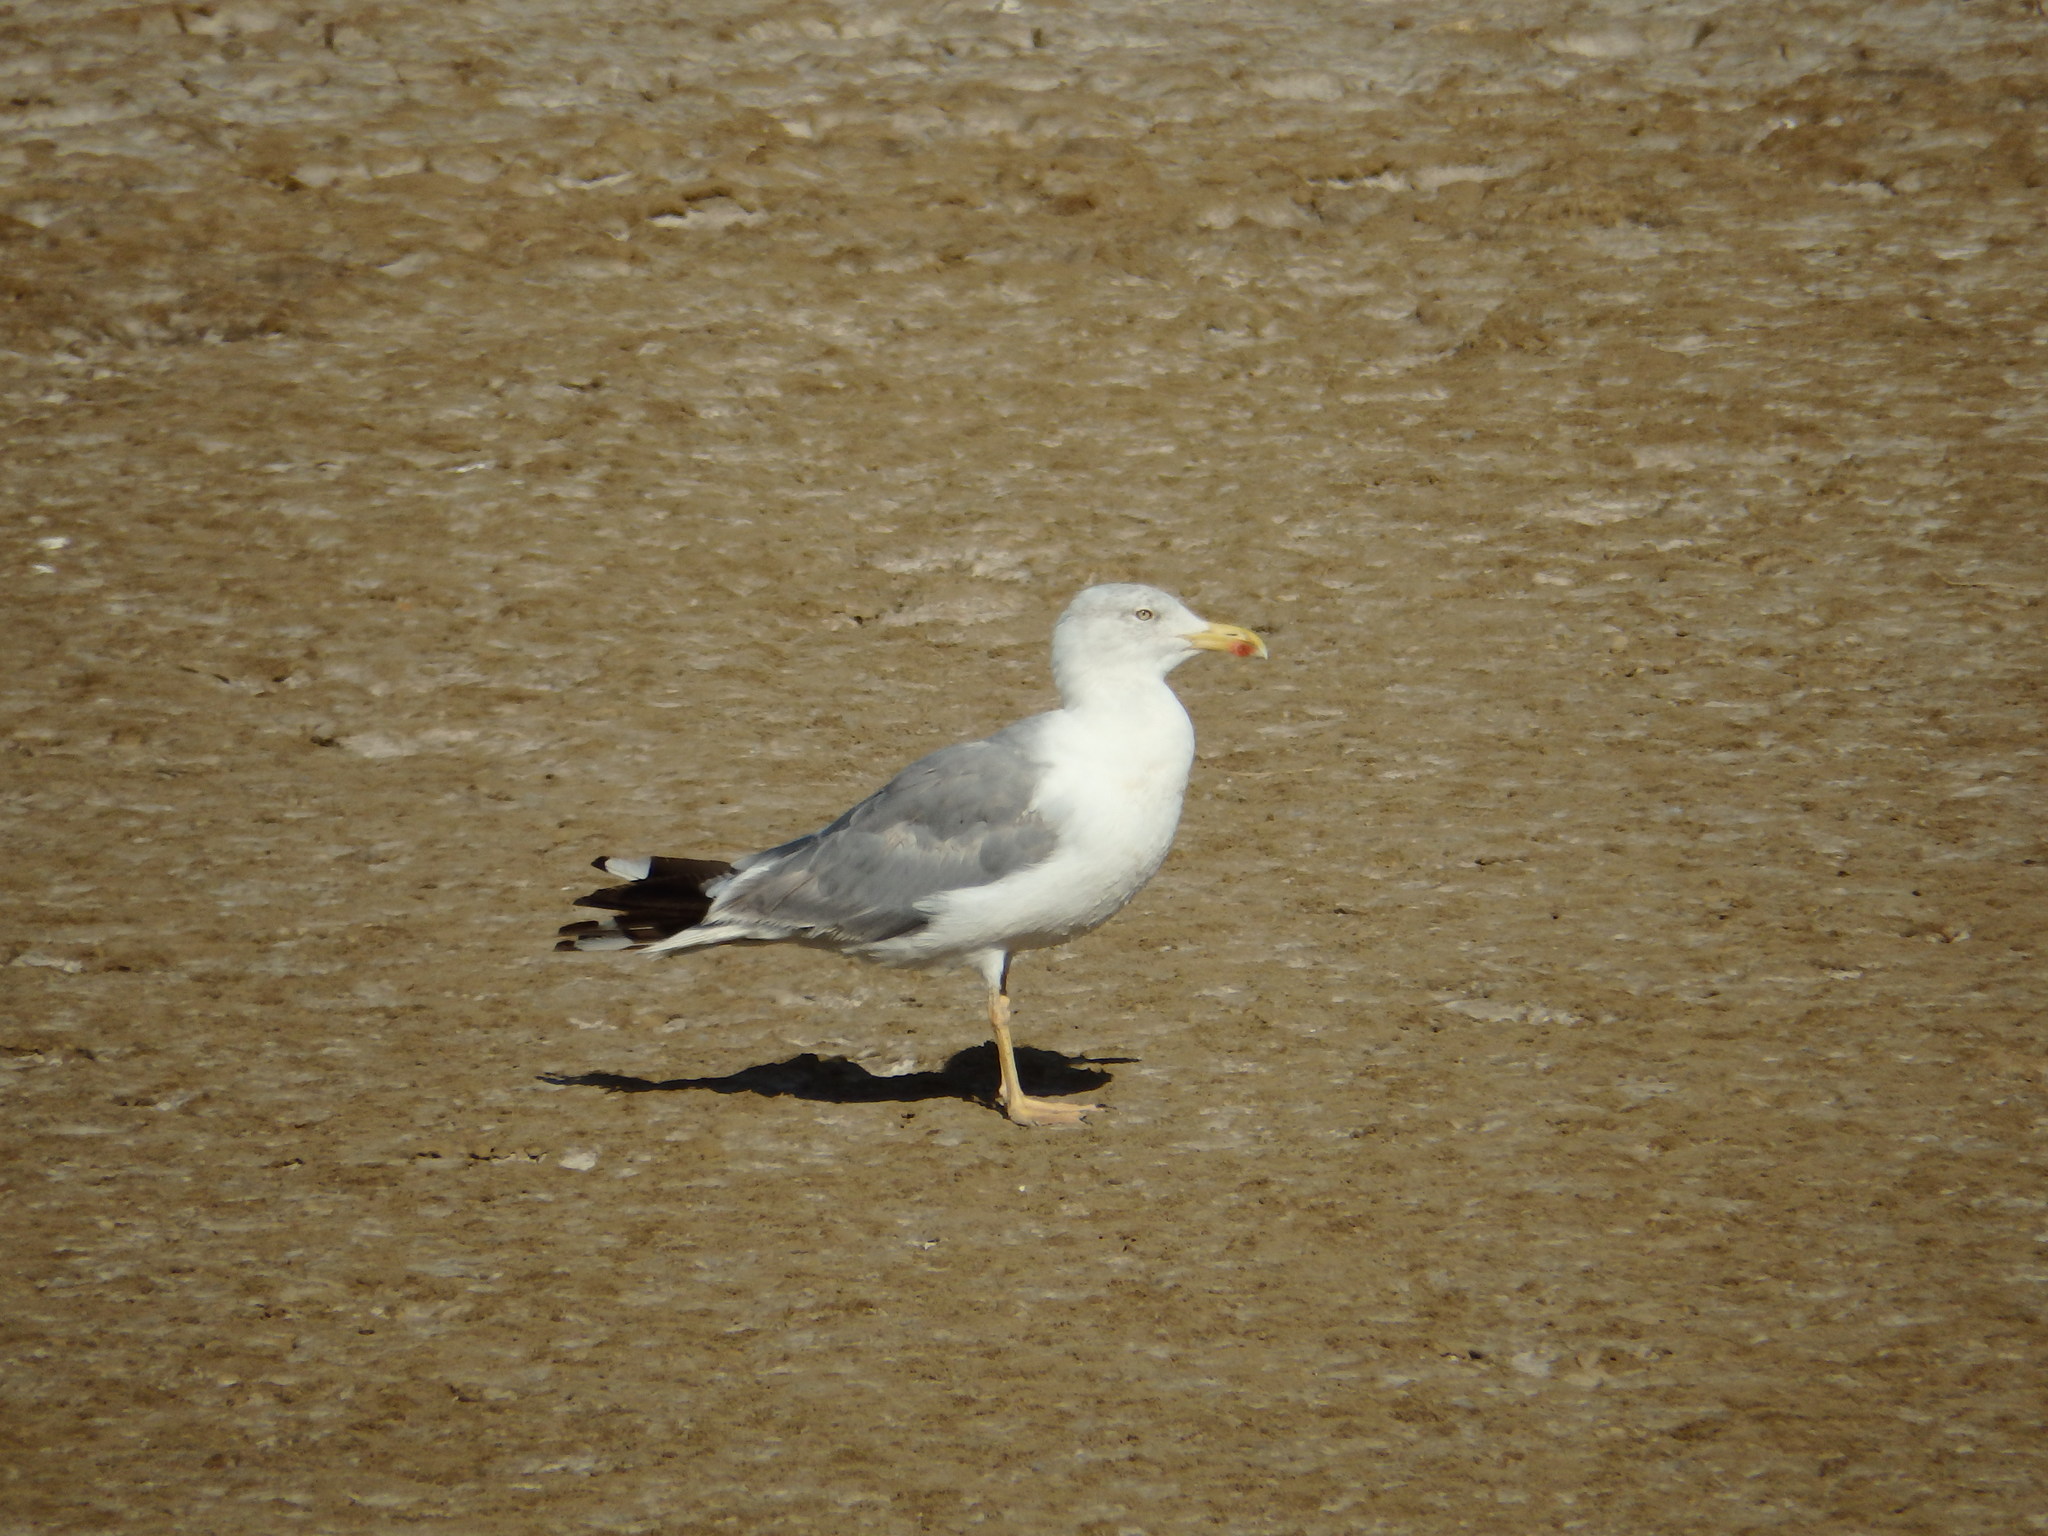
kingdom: Animalia
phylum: Chordata
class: Aves
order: Charadriiformes
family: Laridae
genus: Larus
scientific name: Larus michahellis
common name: Yellow-legged gull
